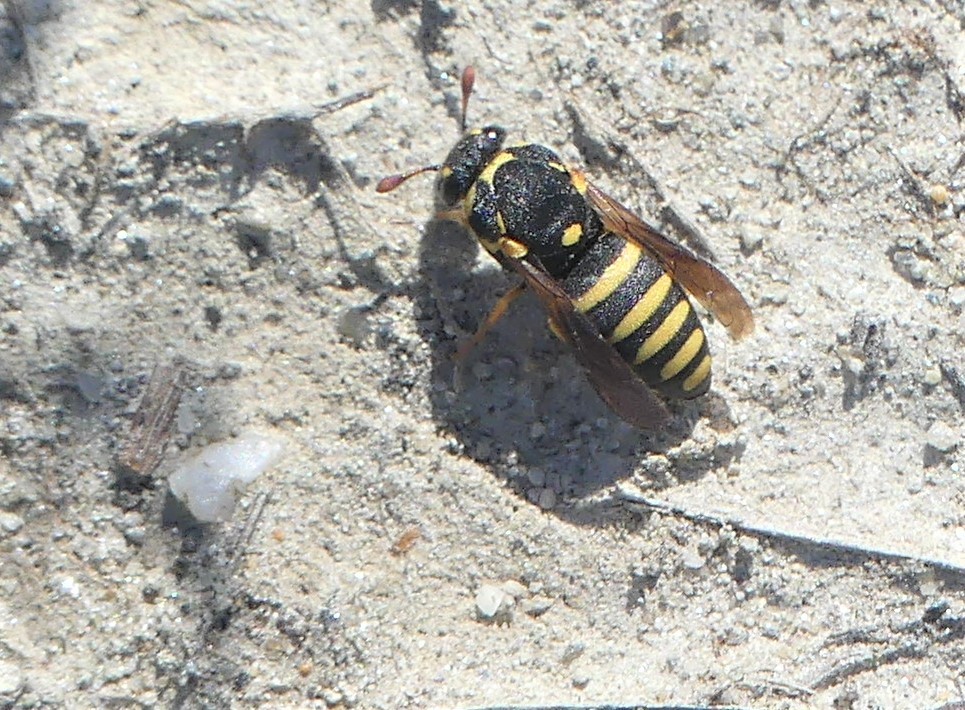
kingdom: Animalia
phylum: Arthropoda
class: Insecta
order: Hymenoptera
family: Masaridae
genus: Celonites
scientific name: Celonites abbreviatus
